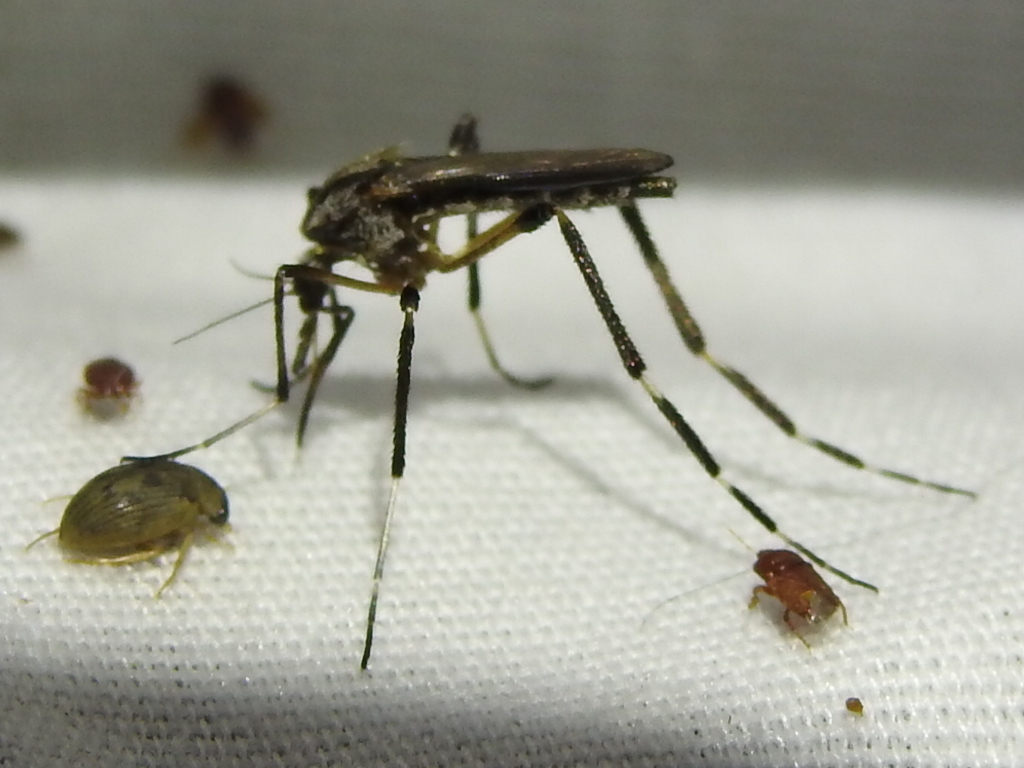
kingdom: Animalia
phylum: Arthropoda
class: Insecta
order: Diptera
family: Culicidae
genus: Psorophora
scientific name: Psorophora ciliata
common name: Gallinipper
